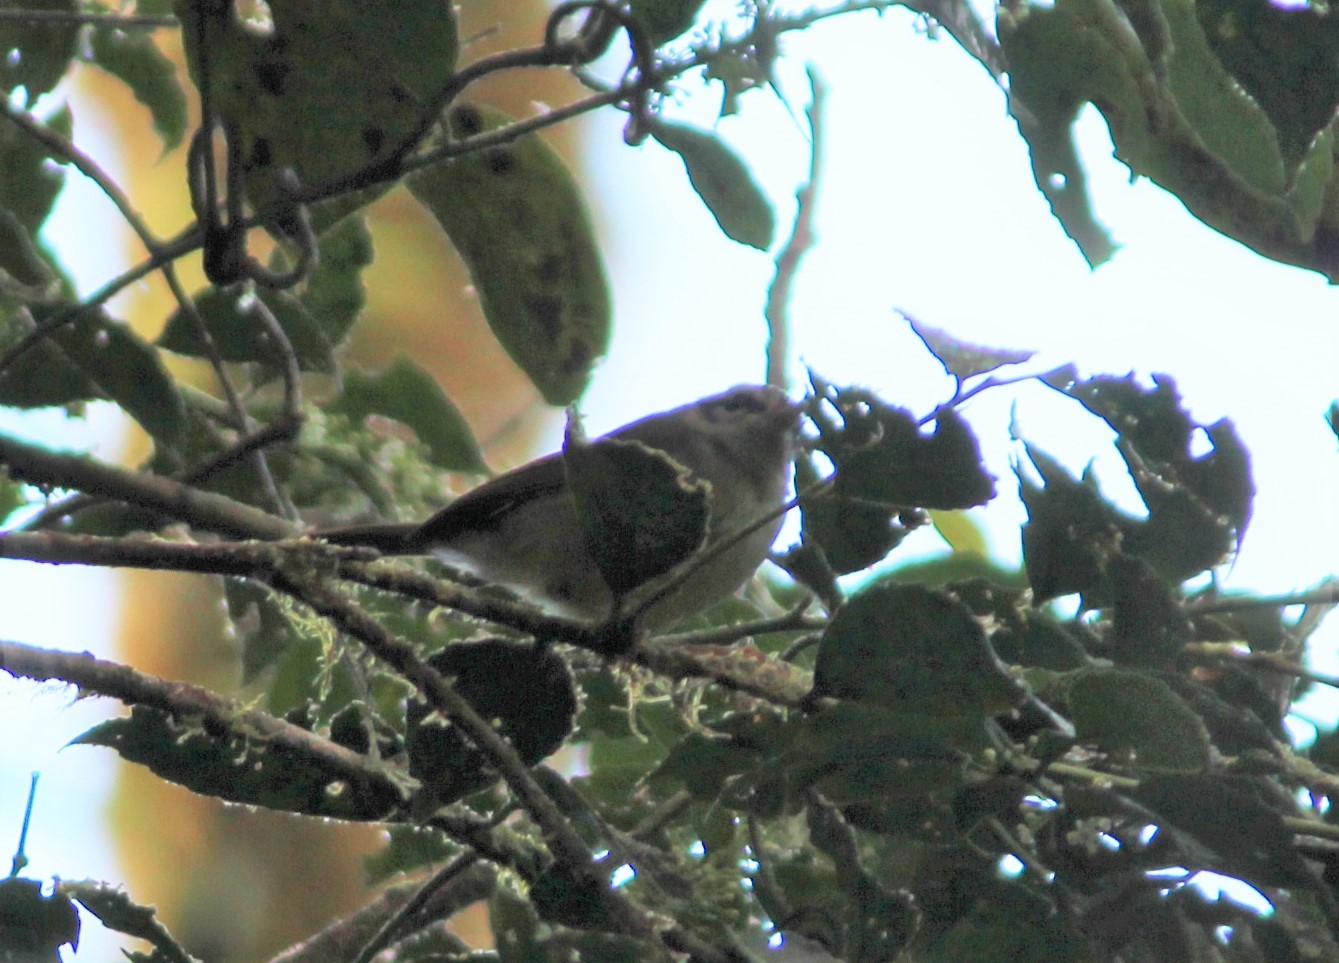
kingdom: Animalia
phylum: Chordata
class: Aves
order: Passeriformes
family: Parulidae
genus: Basileuterus
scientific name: Basileuterus melanotis
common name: Black-eared warbler
